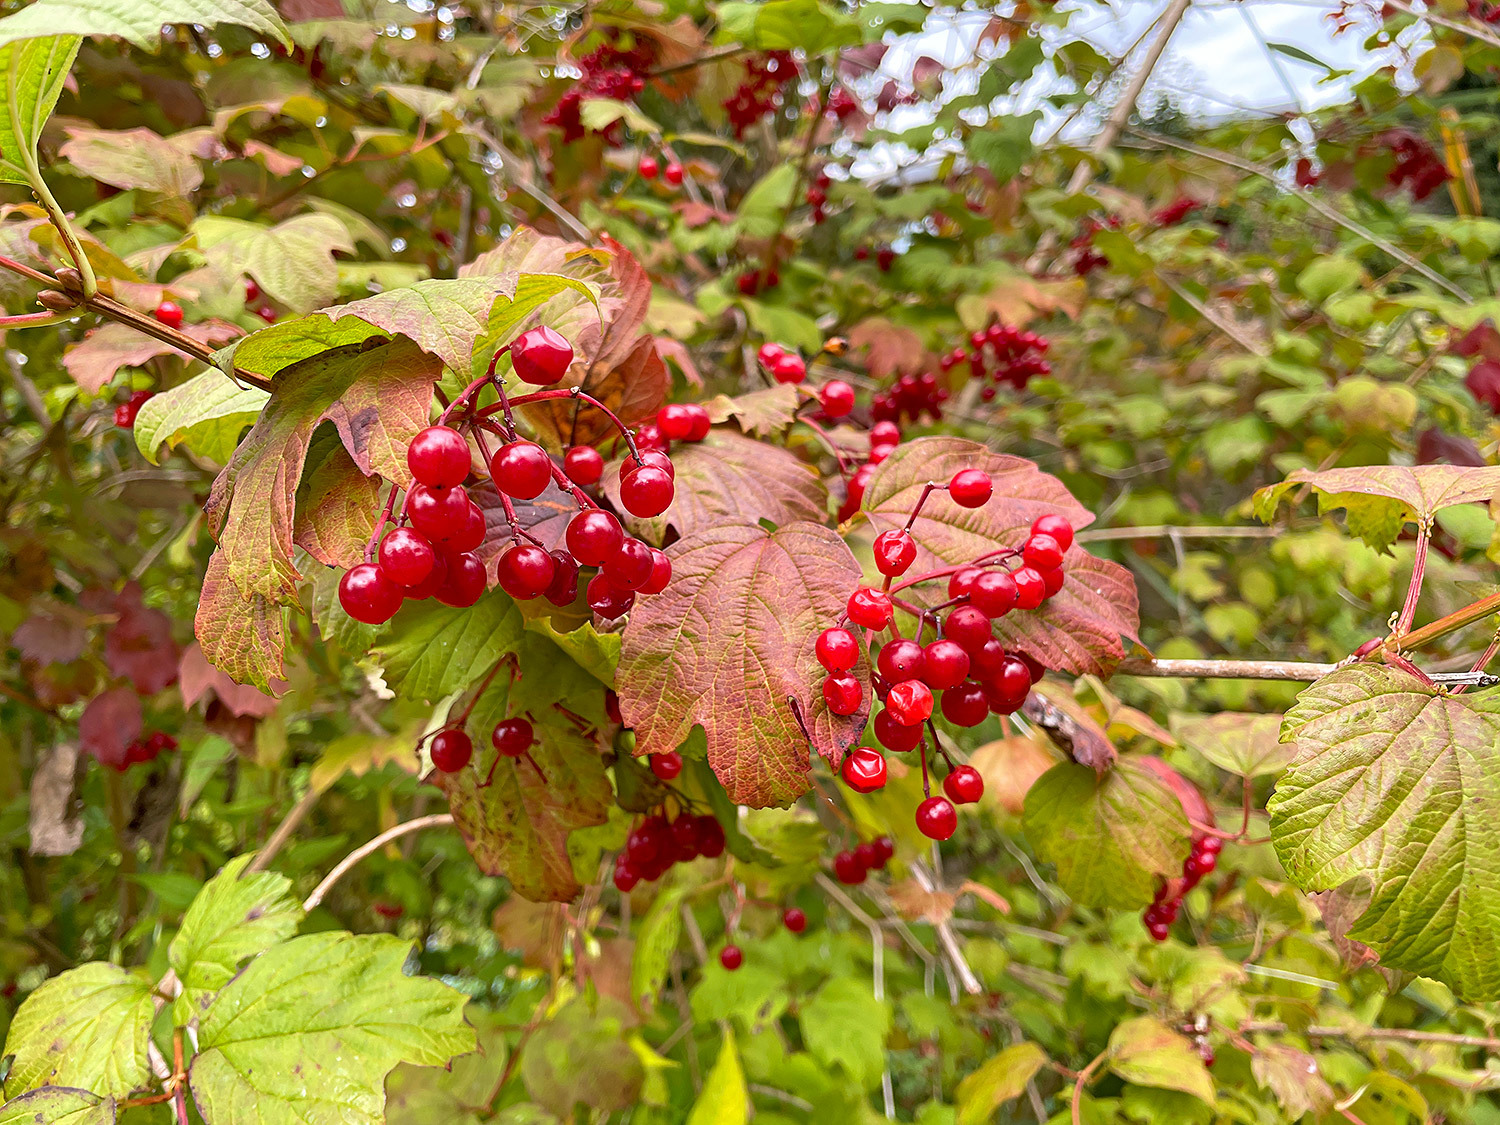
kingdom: Plantae
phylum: Tracheophyta
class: Magnoliopsida
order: Dipsacales
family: Viburnaceae
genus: Viburnum
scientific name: Viburnum opulus
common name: Guelder-rose
